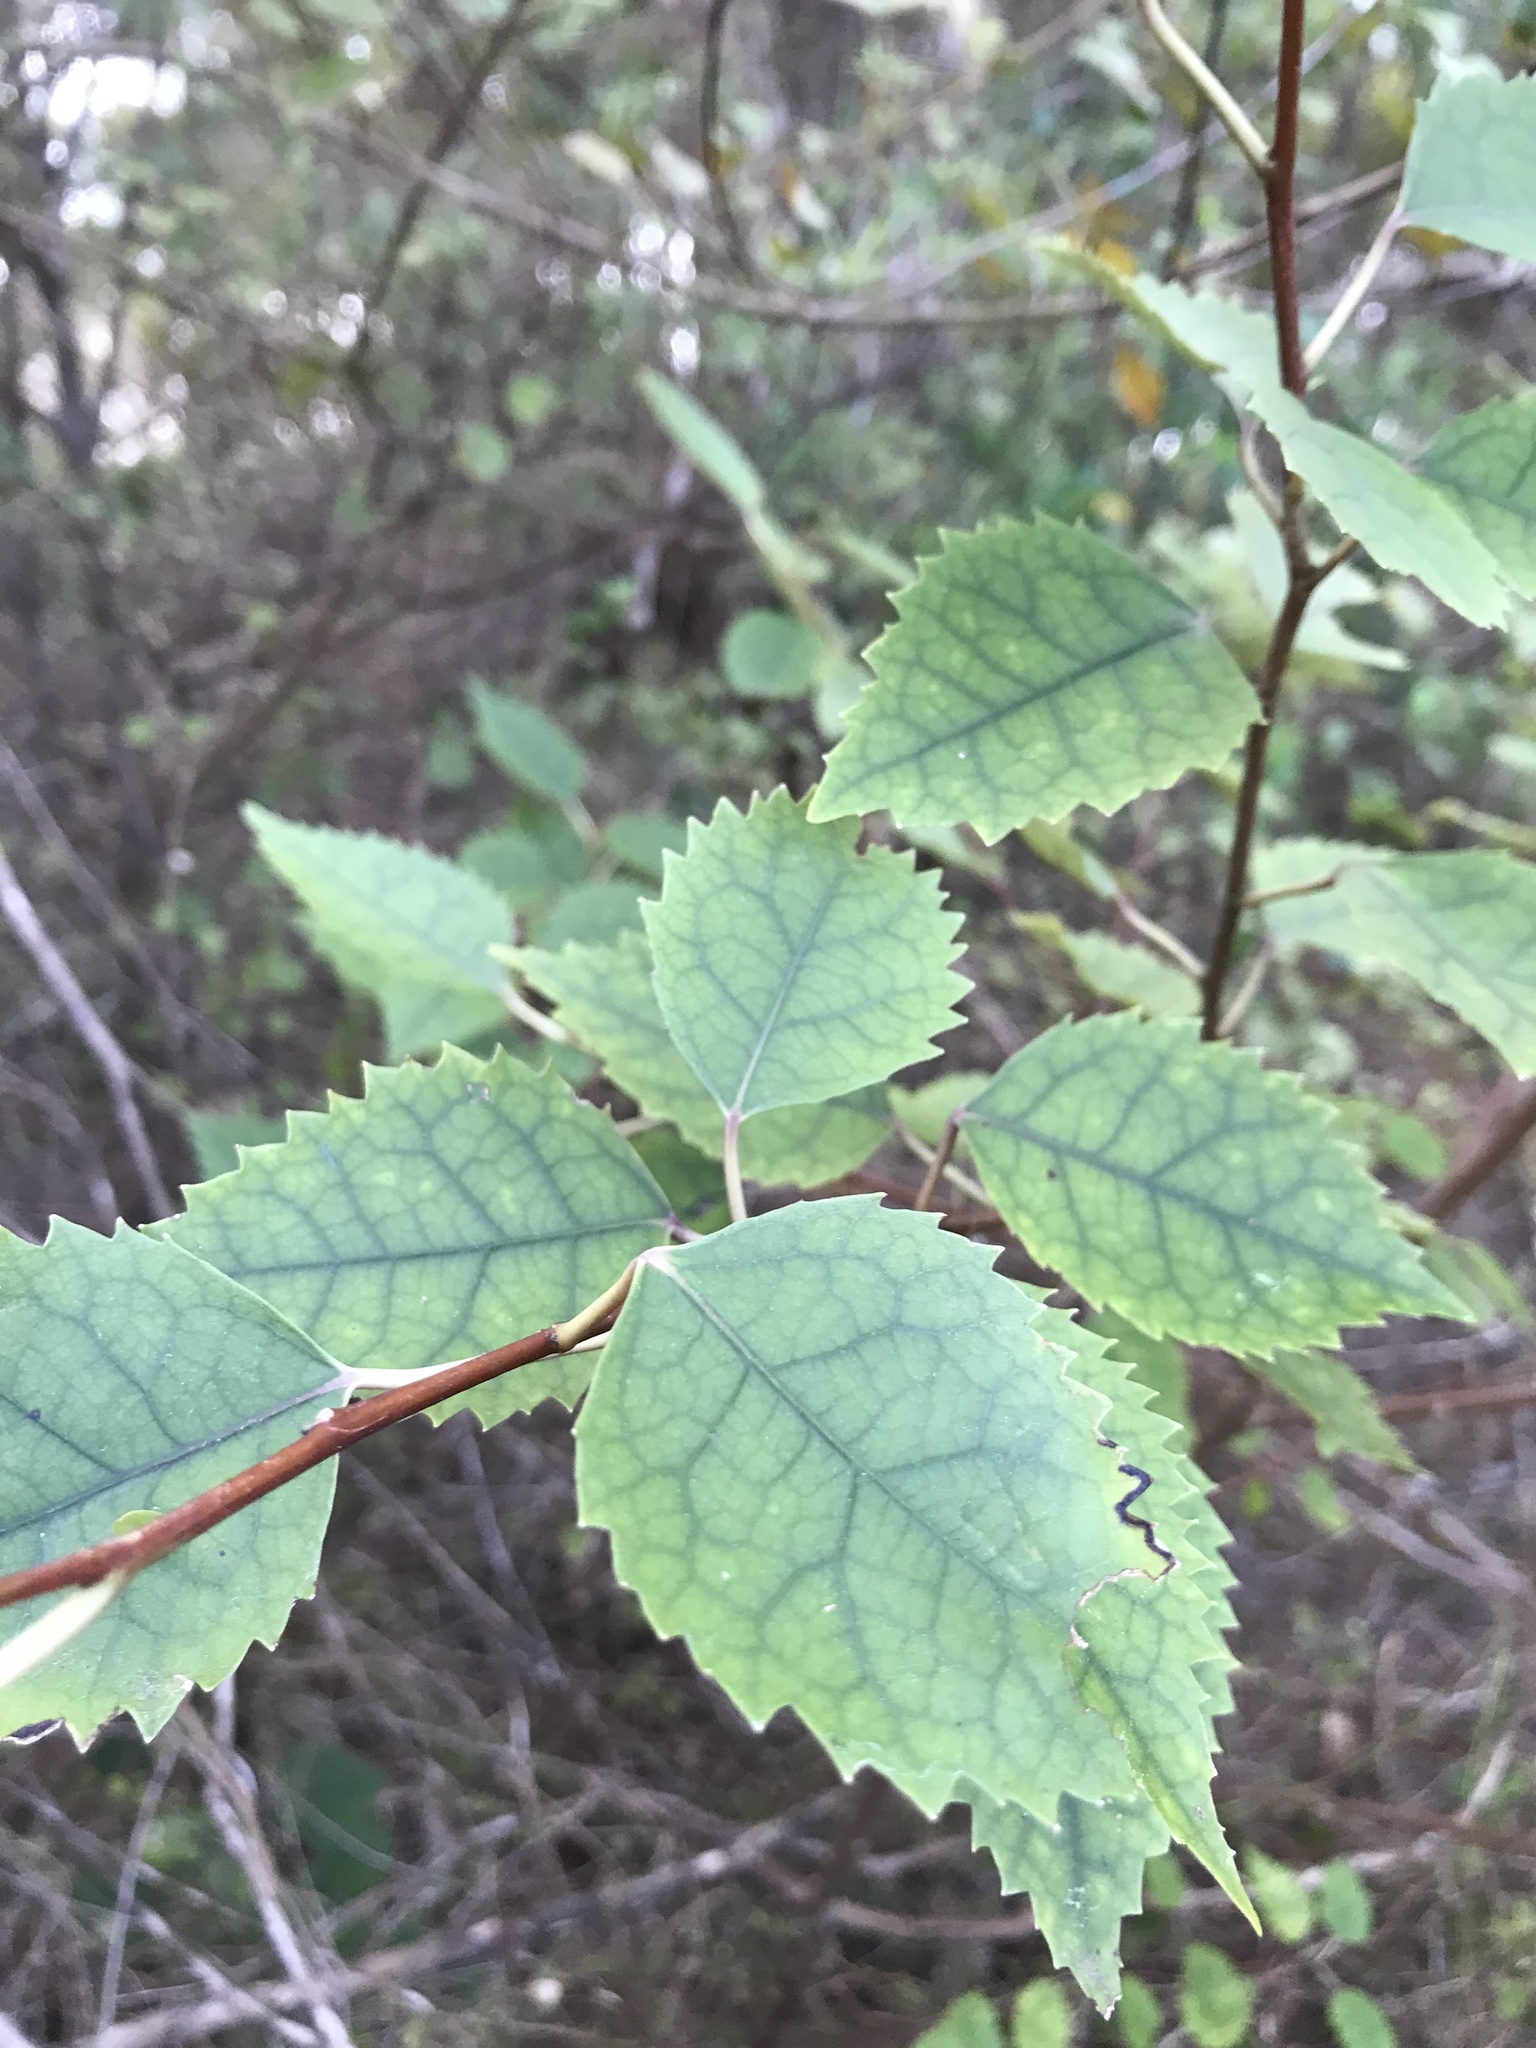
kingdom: Plantae
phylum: Tracheophyta
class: Magnoliopsida
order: Malvales
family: Malvaceae
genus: Hoheria
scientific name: Hoheria populnea
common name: Lacebark
